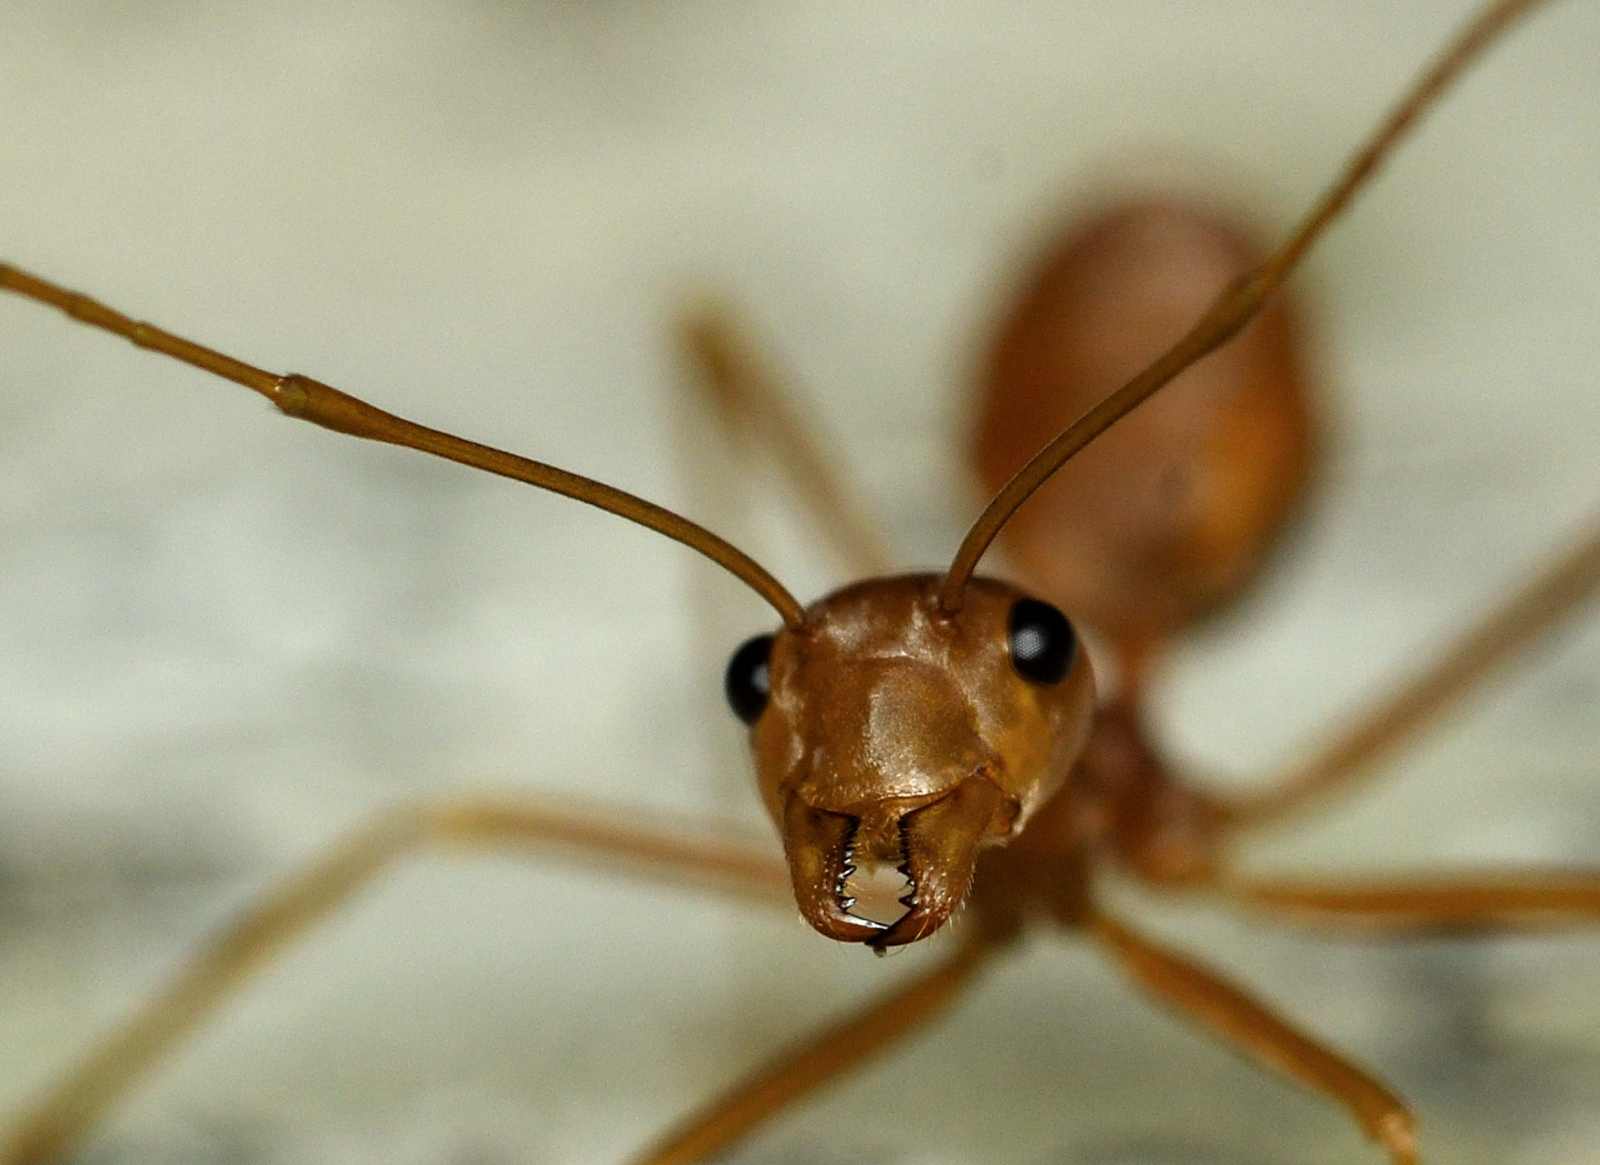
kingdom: Animalia
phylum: Arthropoda
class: Insecta
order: Hymenoptera
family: Formicidae
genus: Oecophylla
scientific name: Oecophylla smaragdina
